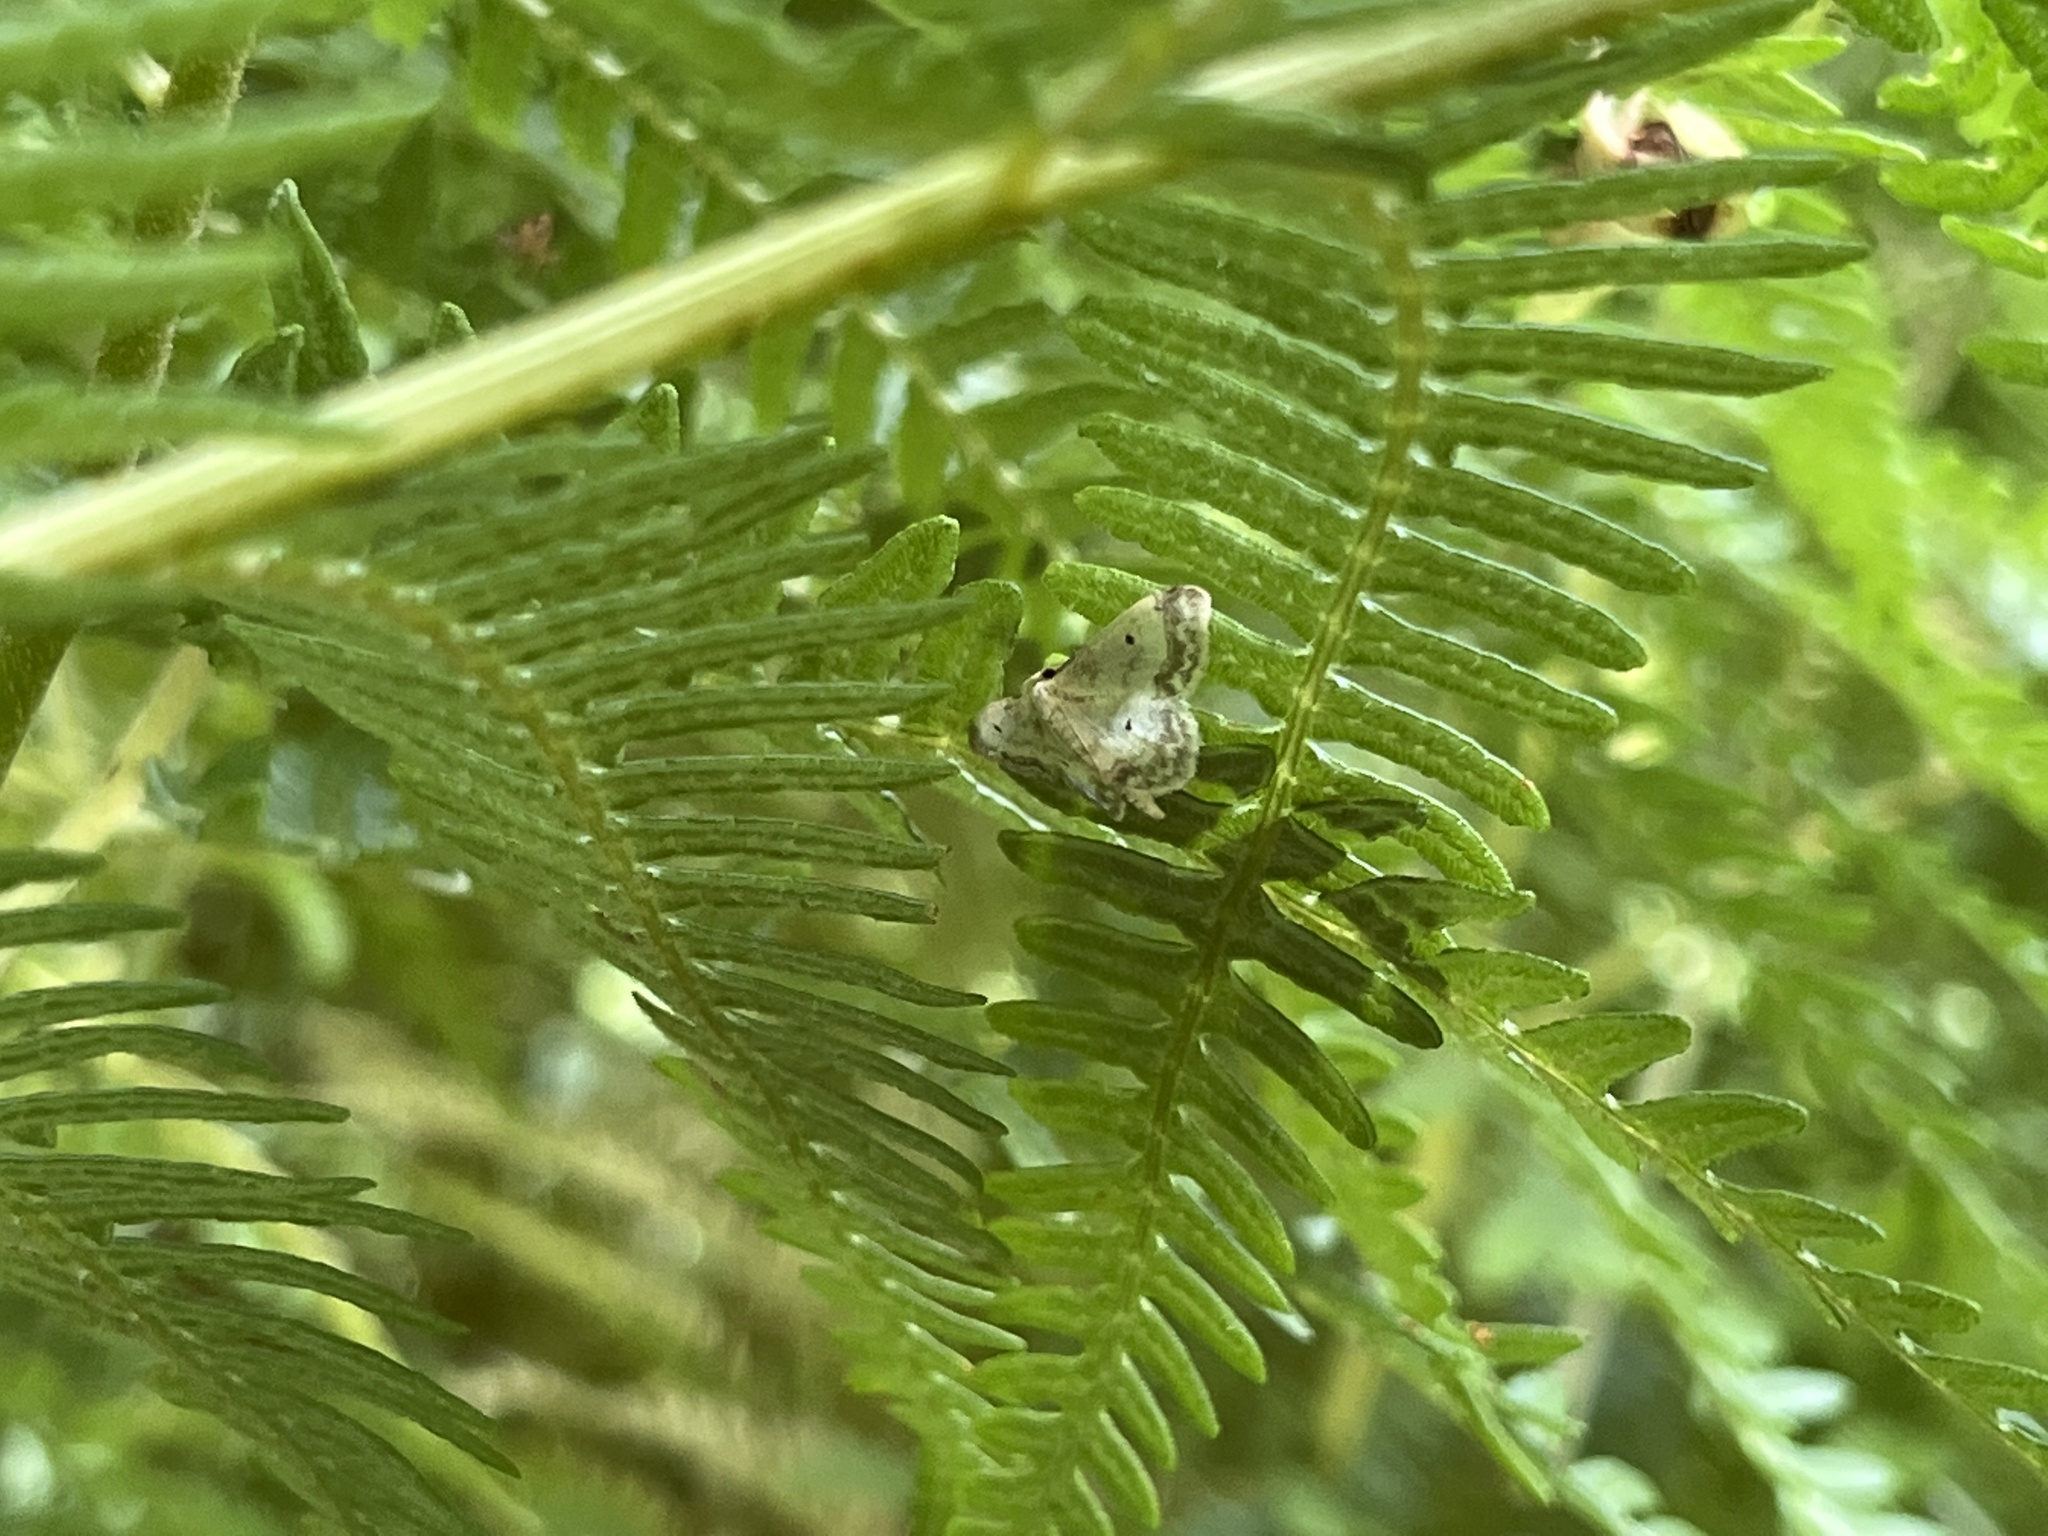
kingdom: Animalia
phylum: Arthropoda
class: Insecta
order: Lepidoptera
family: Geometridae
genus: Idaea
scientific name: Idaea biselata
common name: Small fan-footed wave
